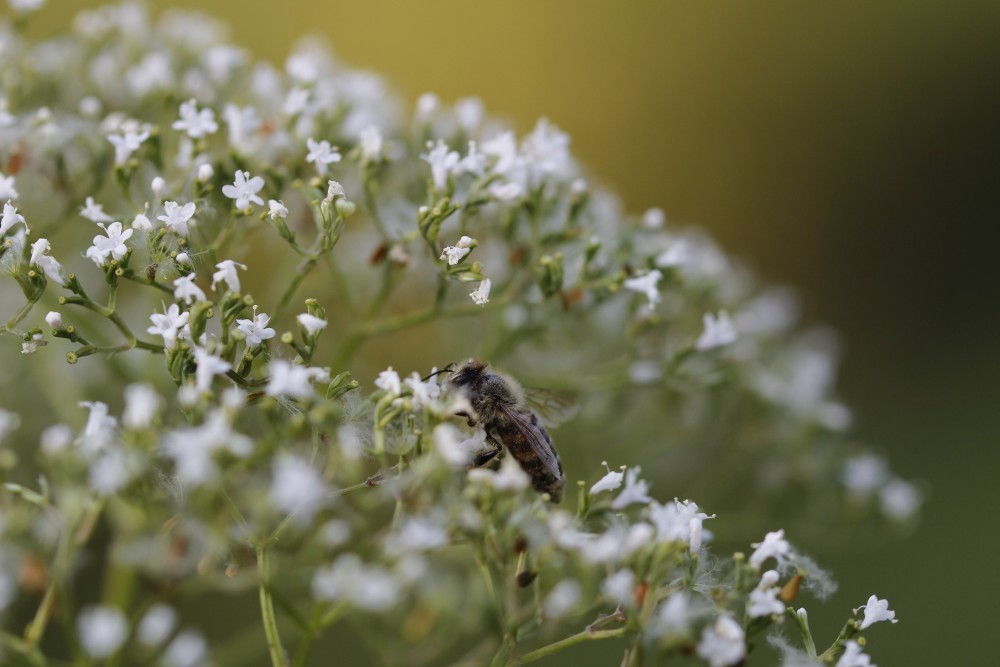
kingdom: Animalia
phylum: Arthropoda
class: Insecta
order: Hymenoptera
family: Apidae
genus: Apis
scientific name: Apis mellifera
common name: Honey bee
